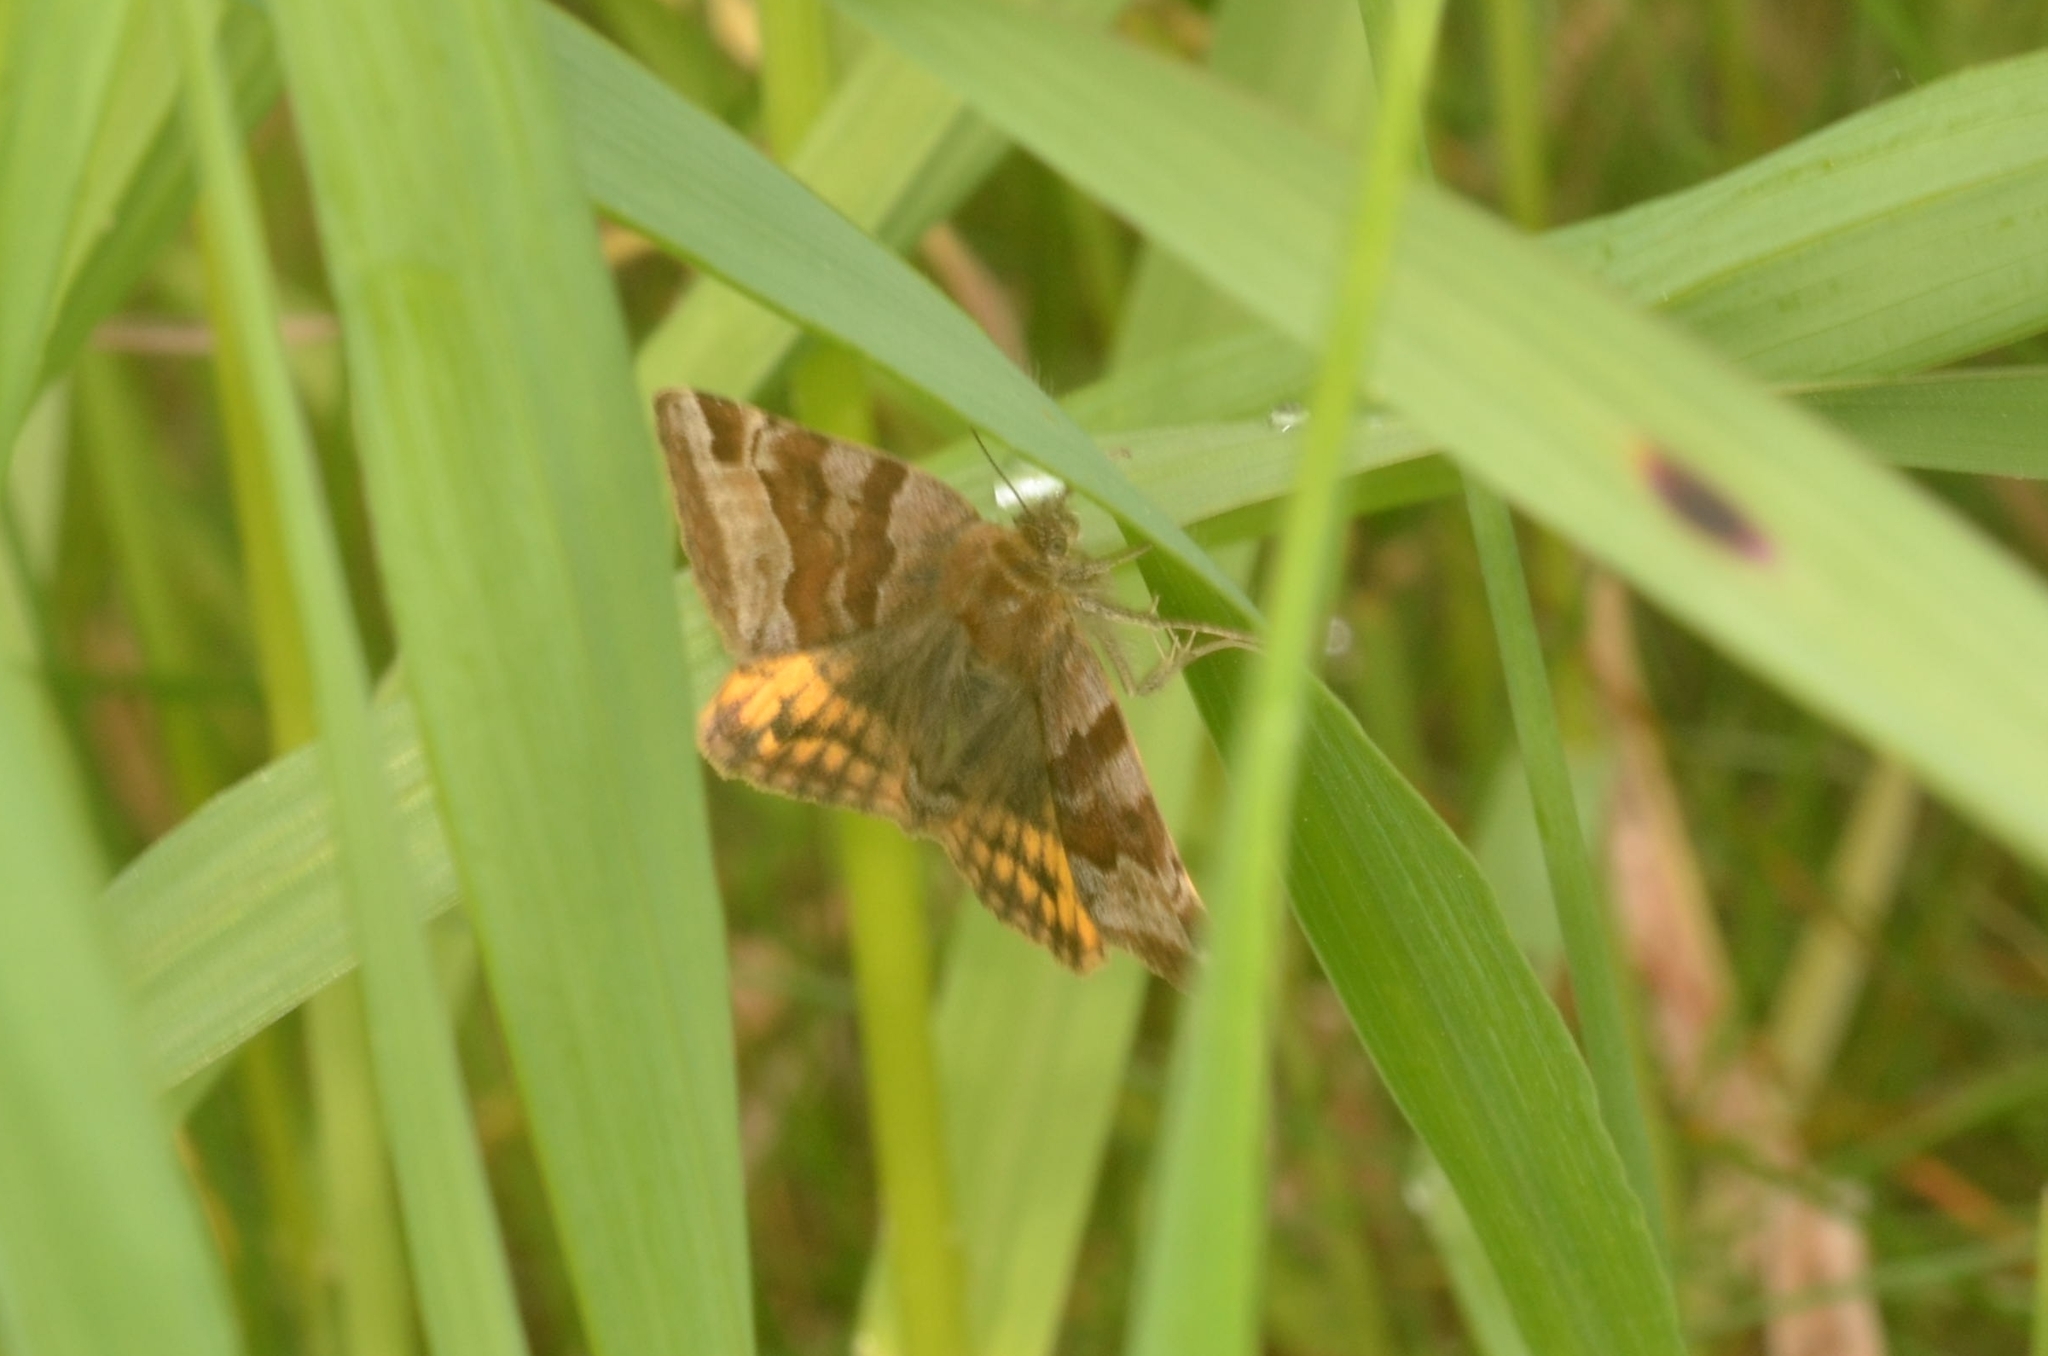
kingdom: Animalia
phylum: Arthropoda
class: Insecta
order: Lepidoptera
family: Erebidae
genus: Euclidia
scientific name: Euclidia glyphica
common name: Burnet companion
